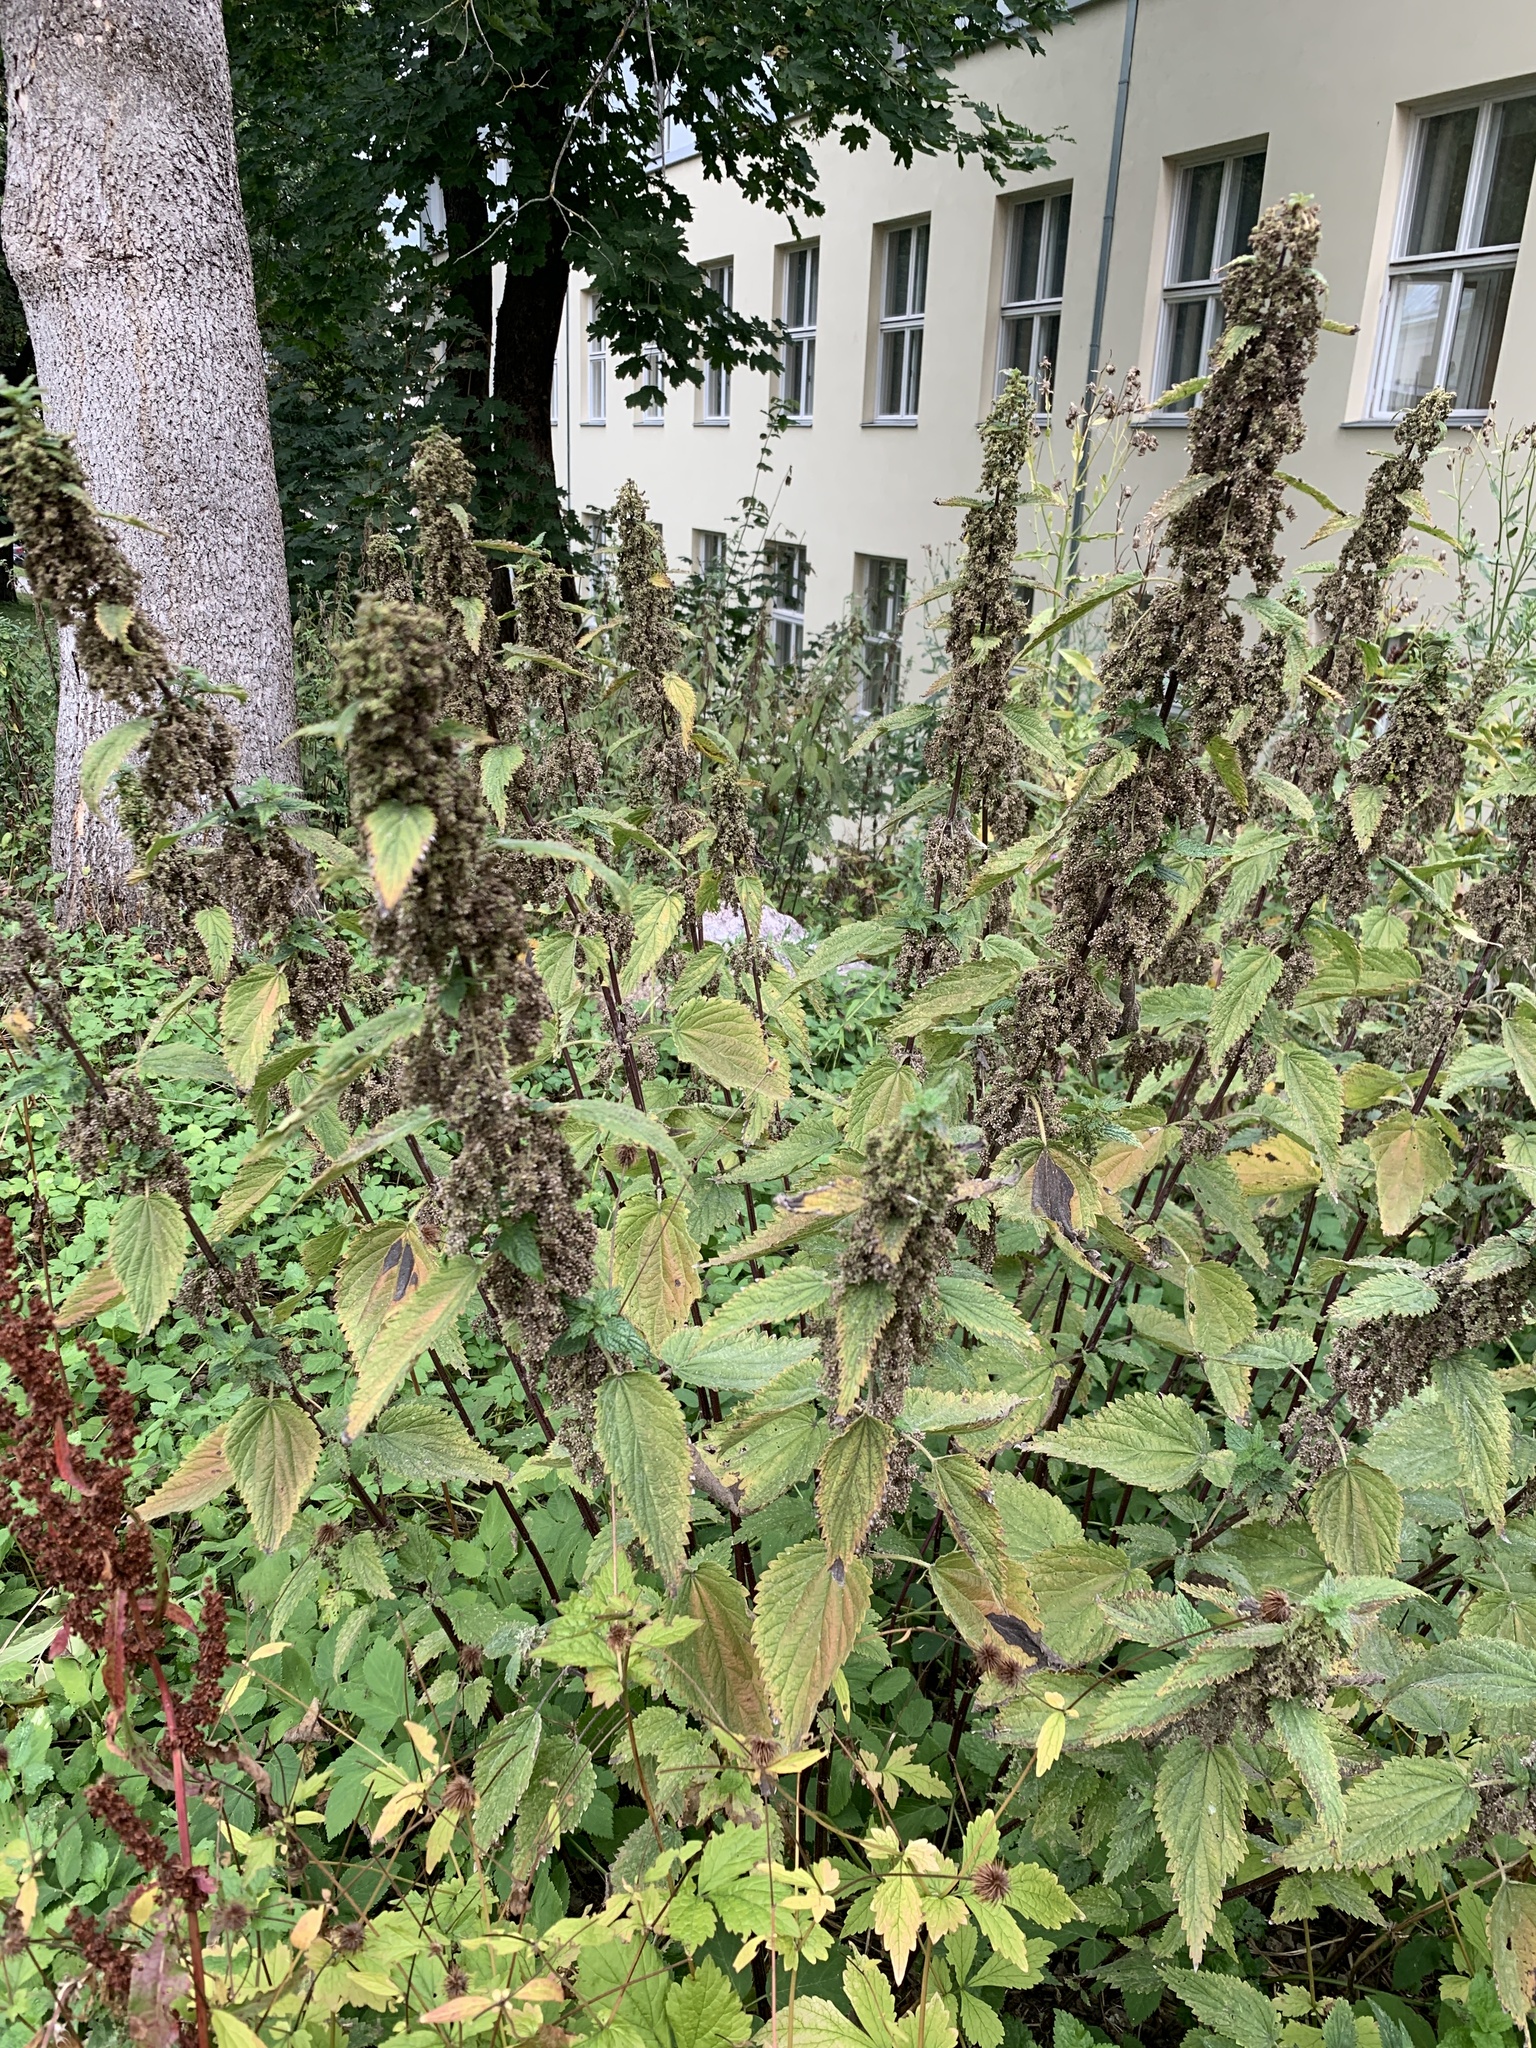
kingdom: Plantae
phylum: Tracheophyta
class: Magnoliopsida
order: Rosales
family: Urticaceae
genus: Urtica
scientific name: Urtica dioica
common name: Common nettle
